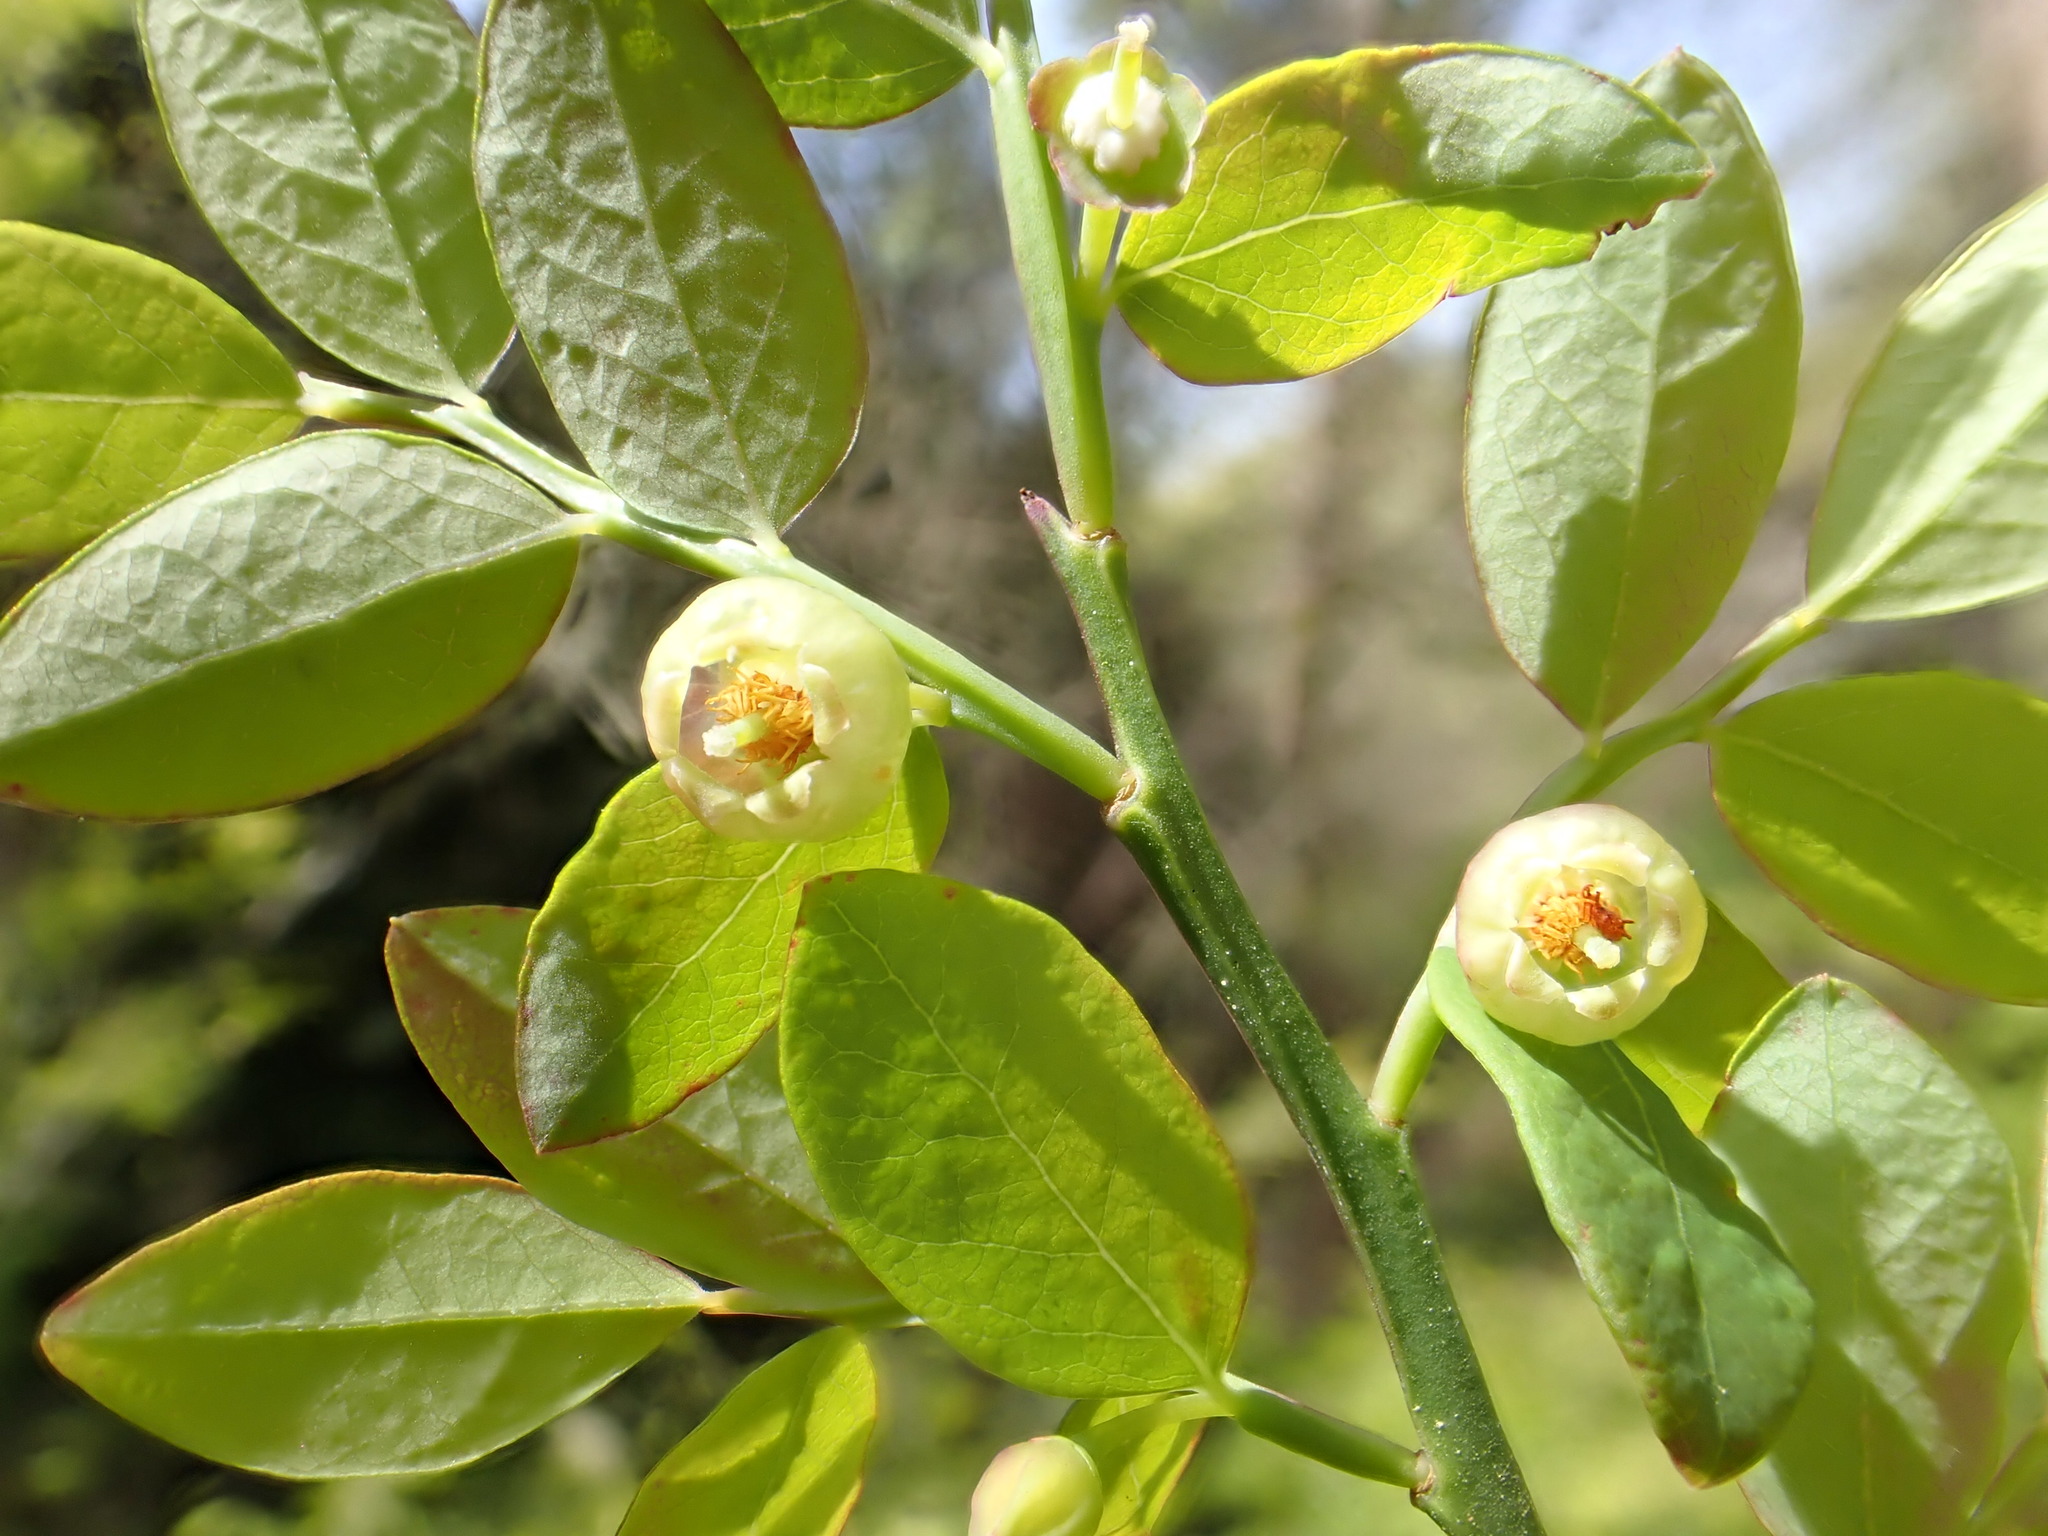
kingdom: Plantae
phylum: Tracheophyta
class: Magnoliopsida
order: Ericales
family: Ericaceae
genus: Vaccinium
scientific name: Vaccinium parvifolium
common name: Red-huckleberry
